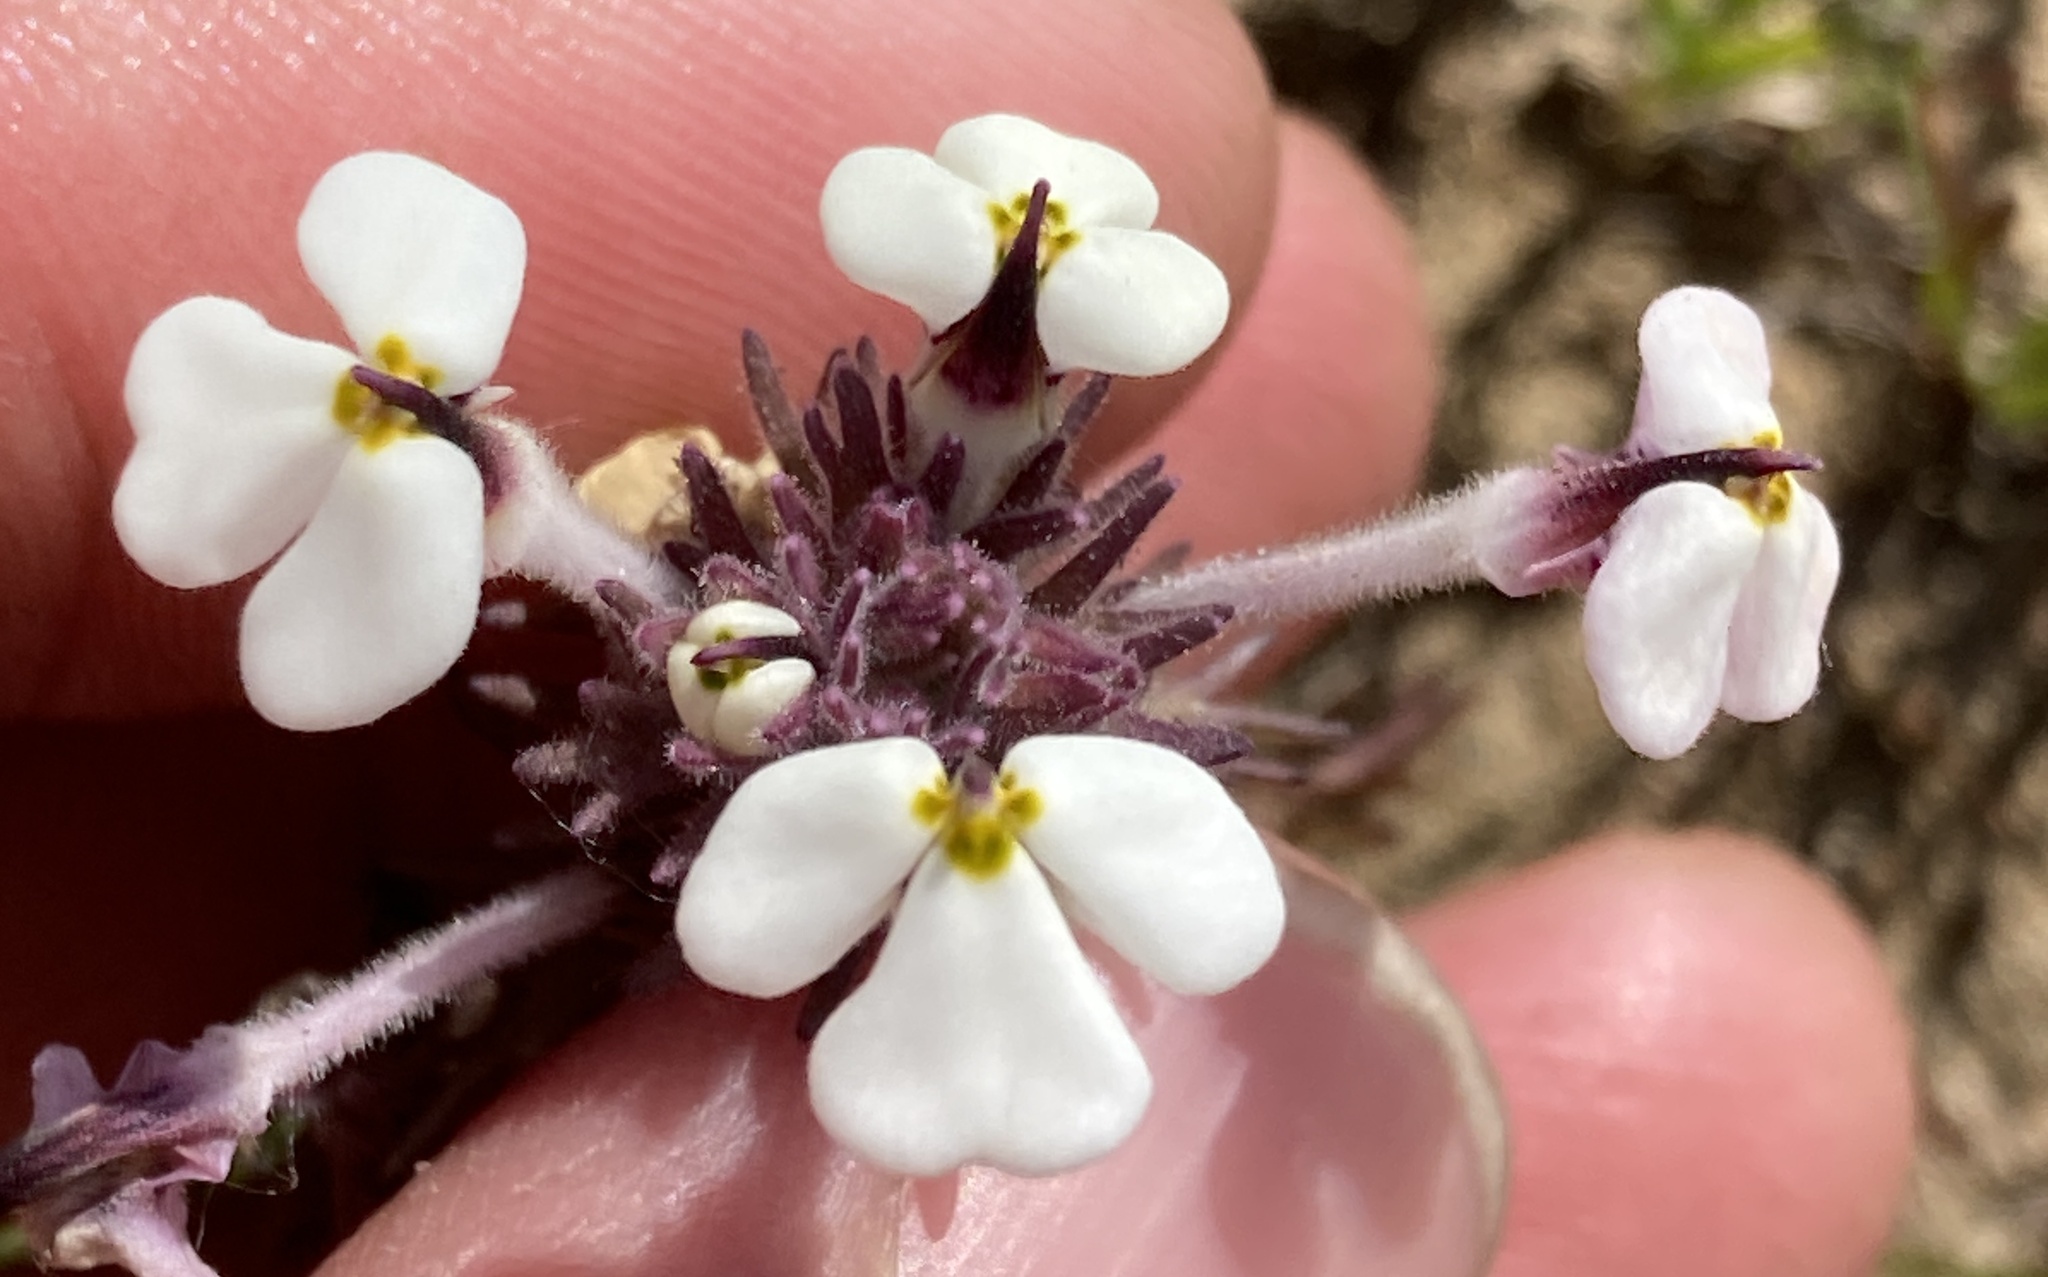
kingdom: Plantae
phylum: Tracheophyta
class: Magnoliopsida
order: Lamiales
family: Orobanchaceae
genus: Triphysaria
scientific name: Triphysaria eriantha
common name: Johnny-tuck
